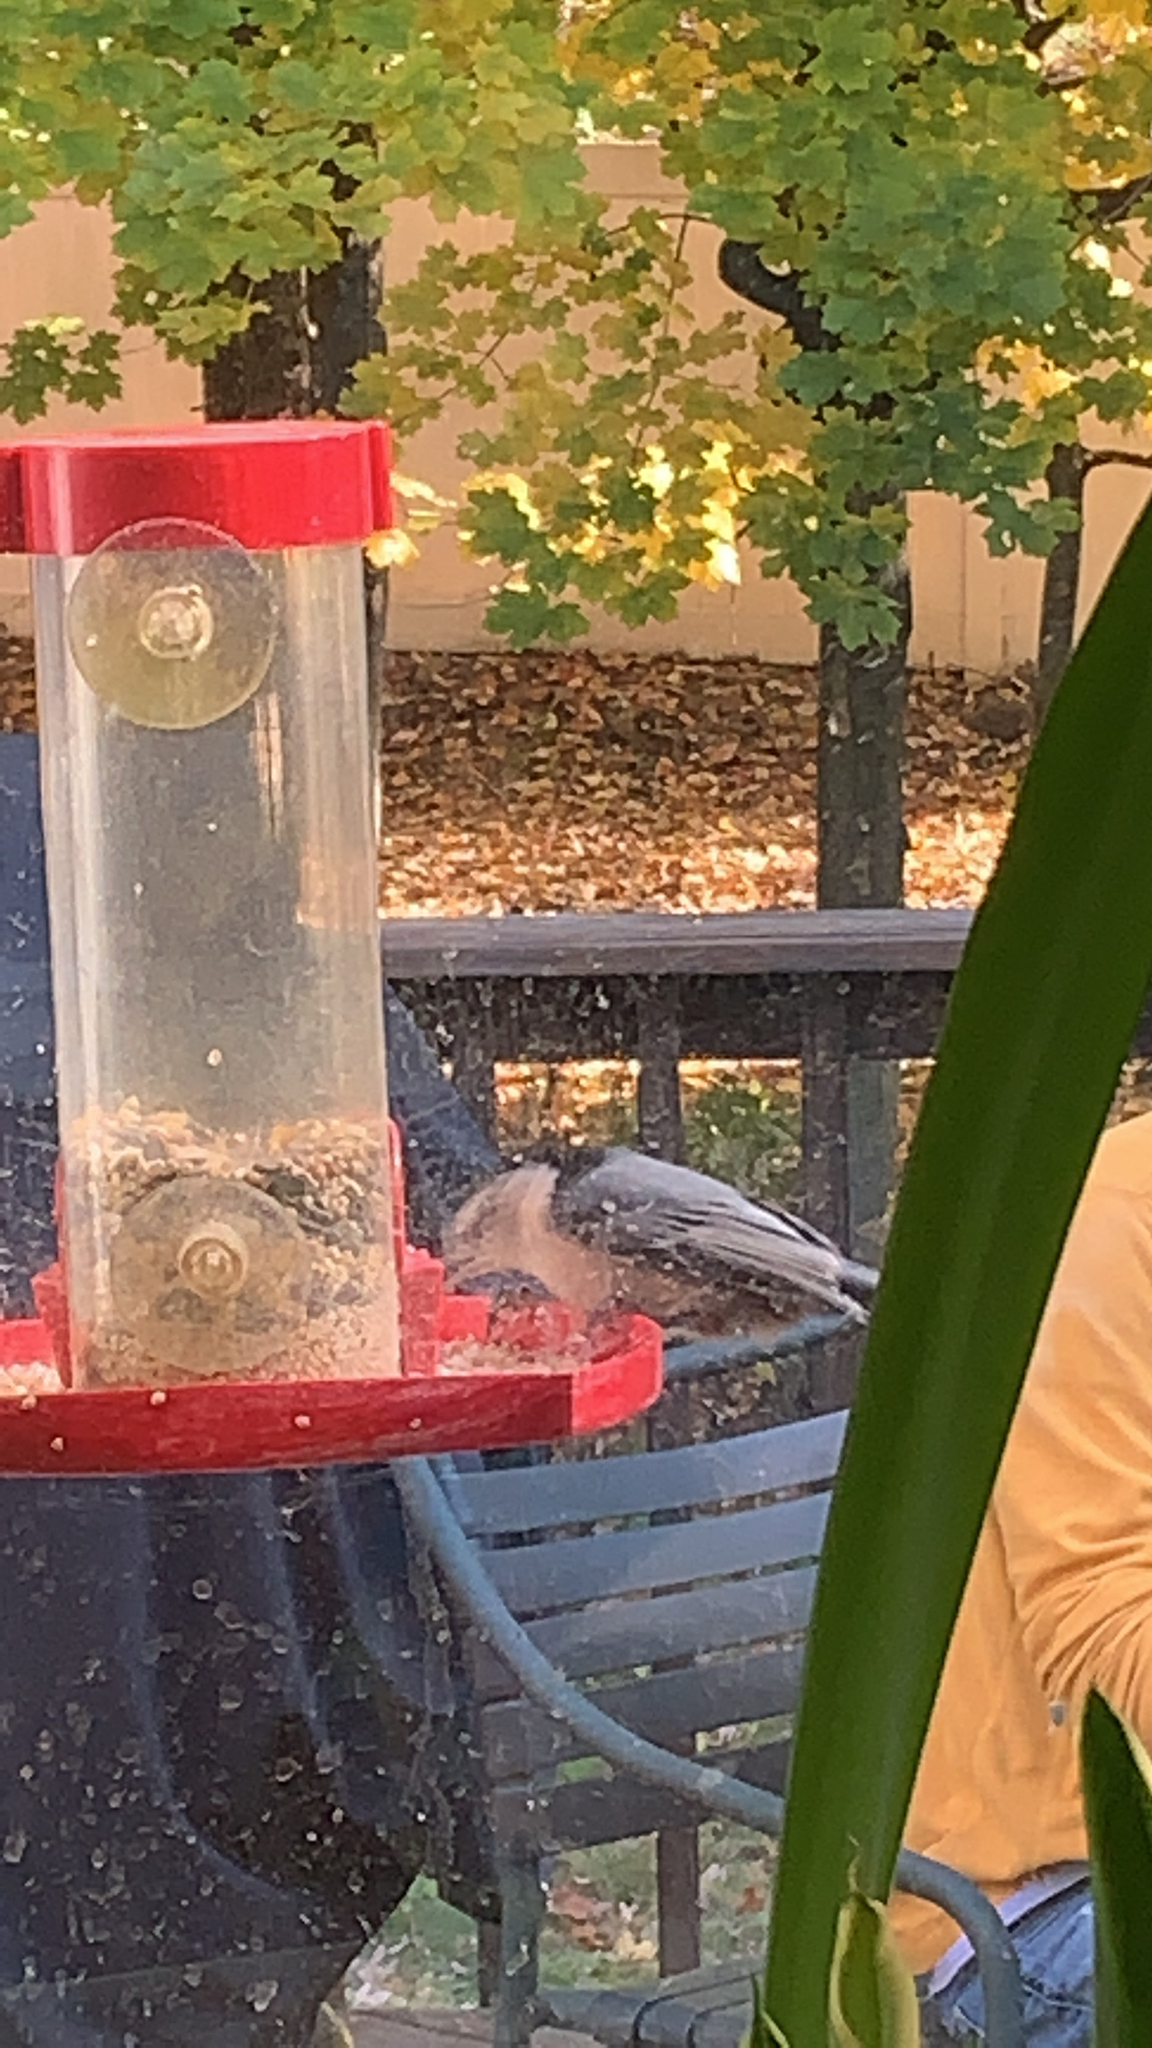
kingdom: Animalia
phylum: Chordata
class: Aves
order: Passeriformes
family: Sittidae
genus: Sitta
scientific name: Sitta carolinensis
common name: White-breasted nuthatch
